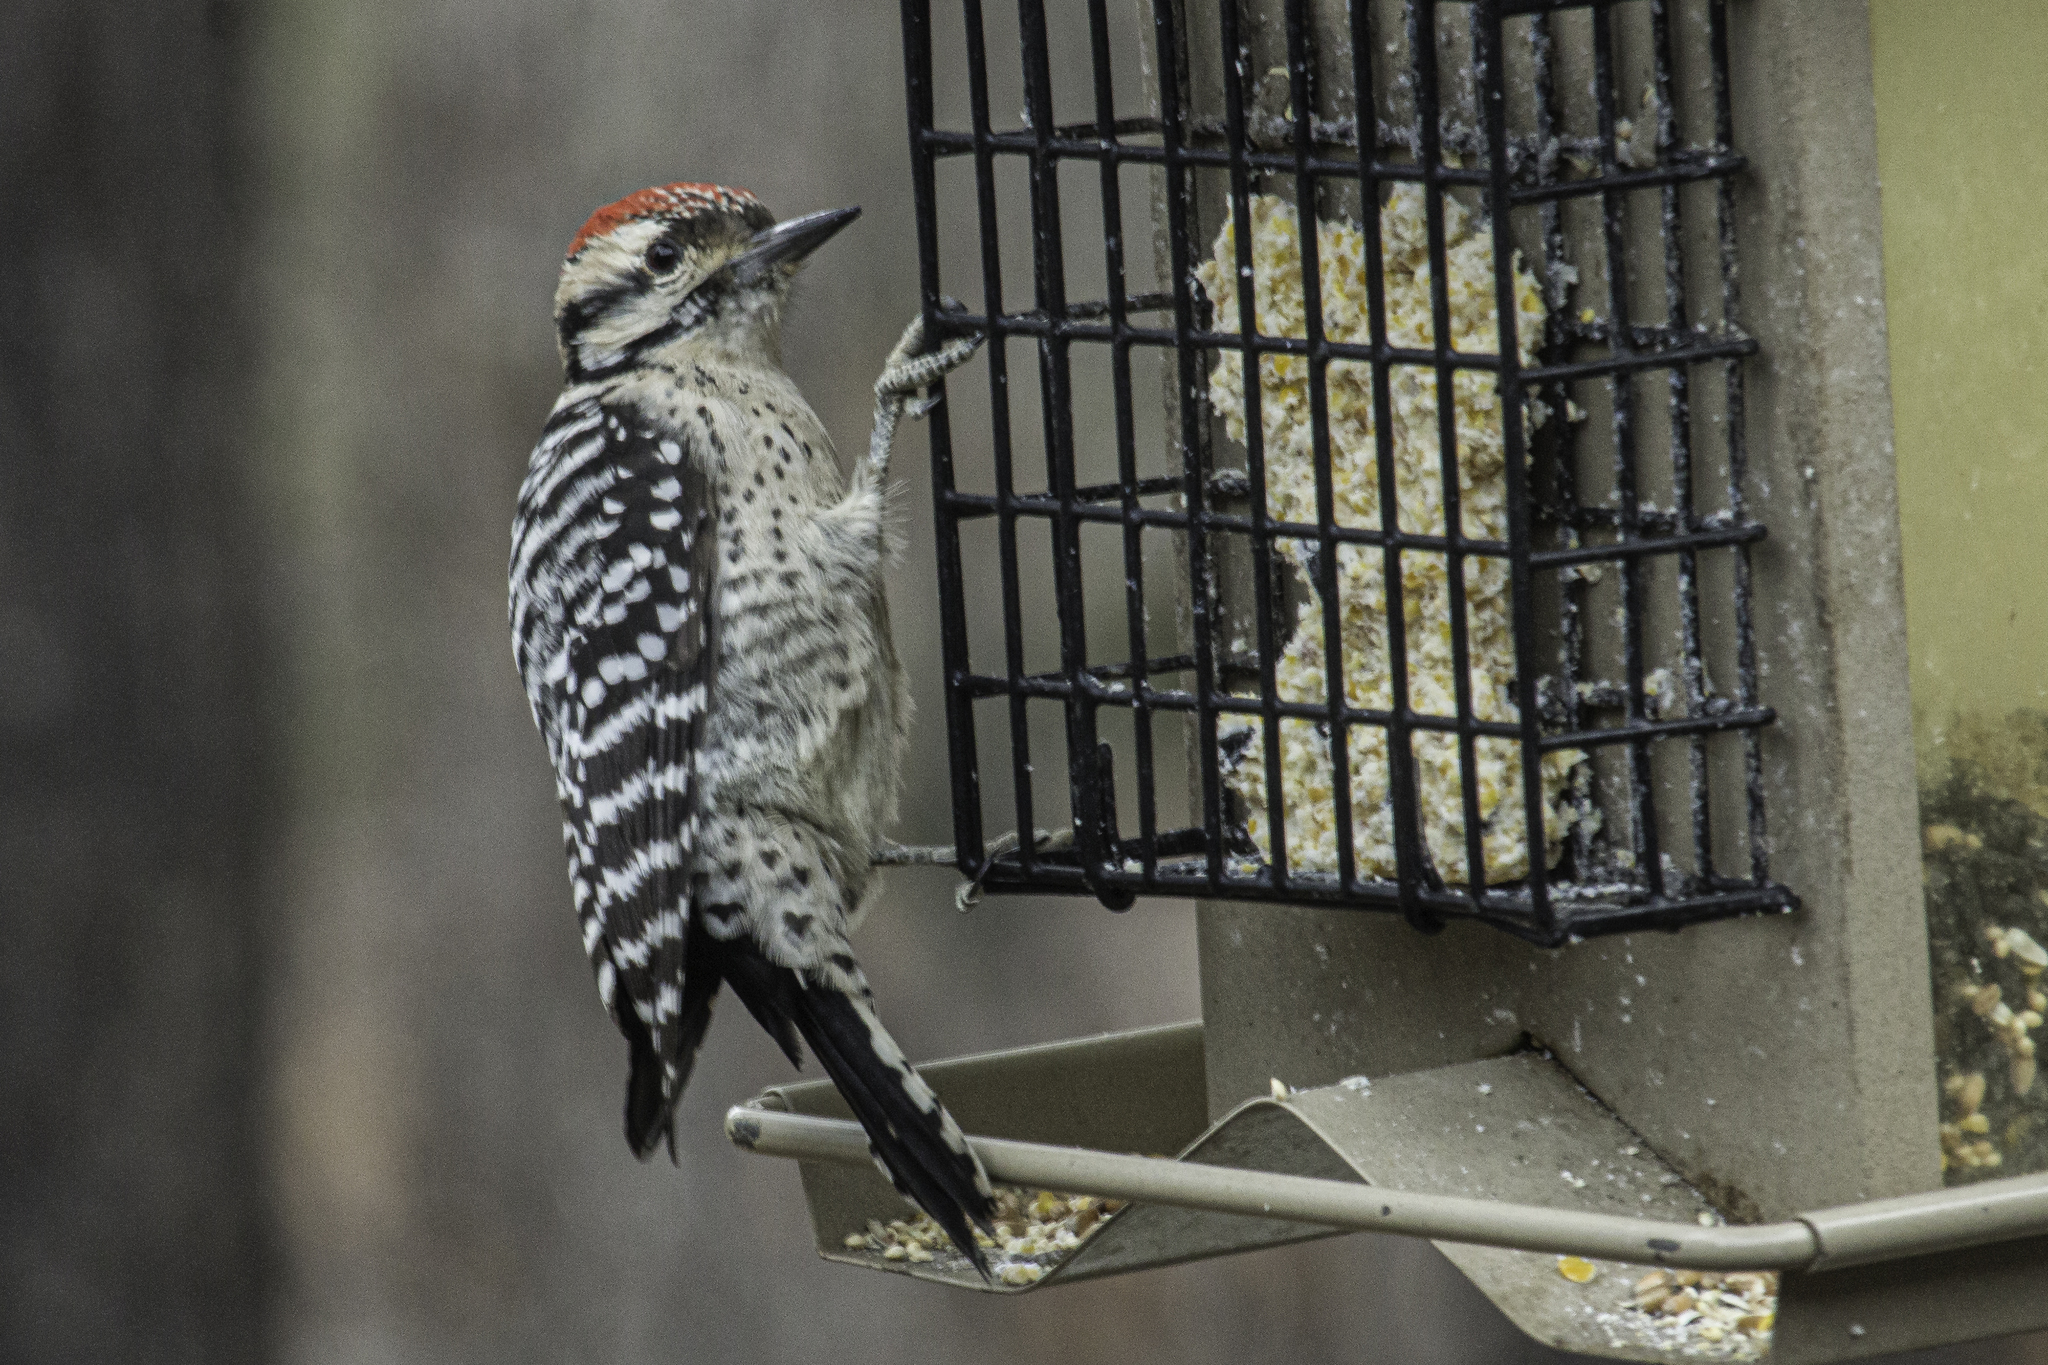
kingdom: Animalia
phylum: Chordata
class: Aves
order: Piciformes
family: Picidae
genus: Dryobates
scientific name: Dryobates scalaris
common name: Ladder-backed woodpecker
